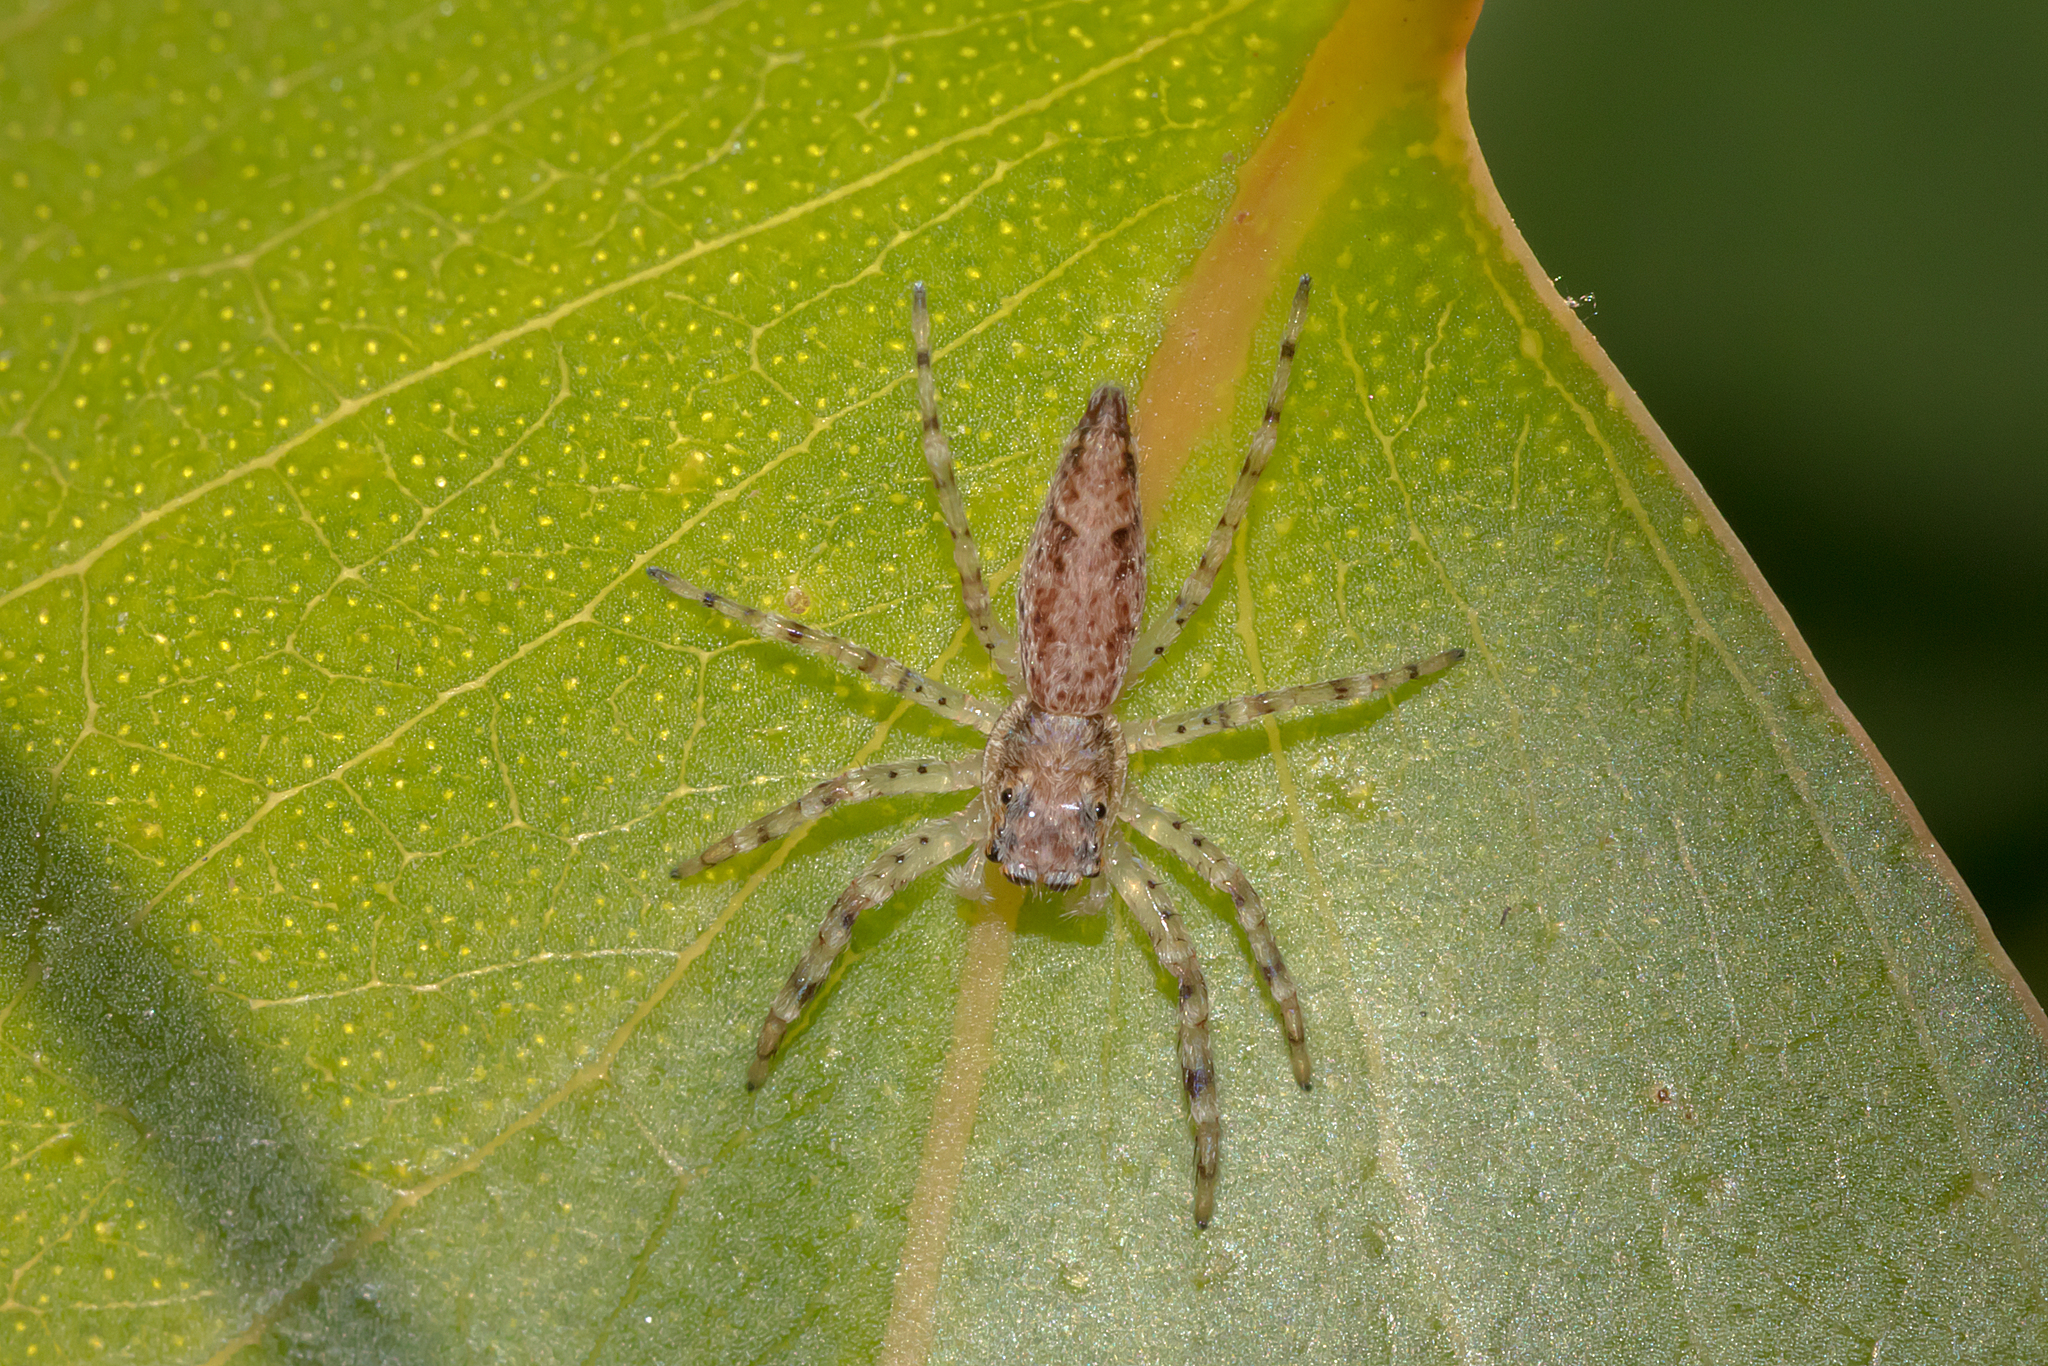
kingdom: Animalia
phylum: Arthropoda
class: Arachnida
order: Araneae
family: Salticidae
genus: Helpis
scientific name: Helpis minitabunda
